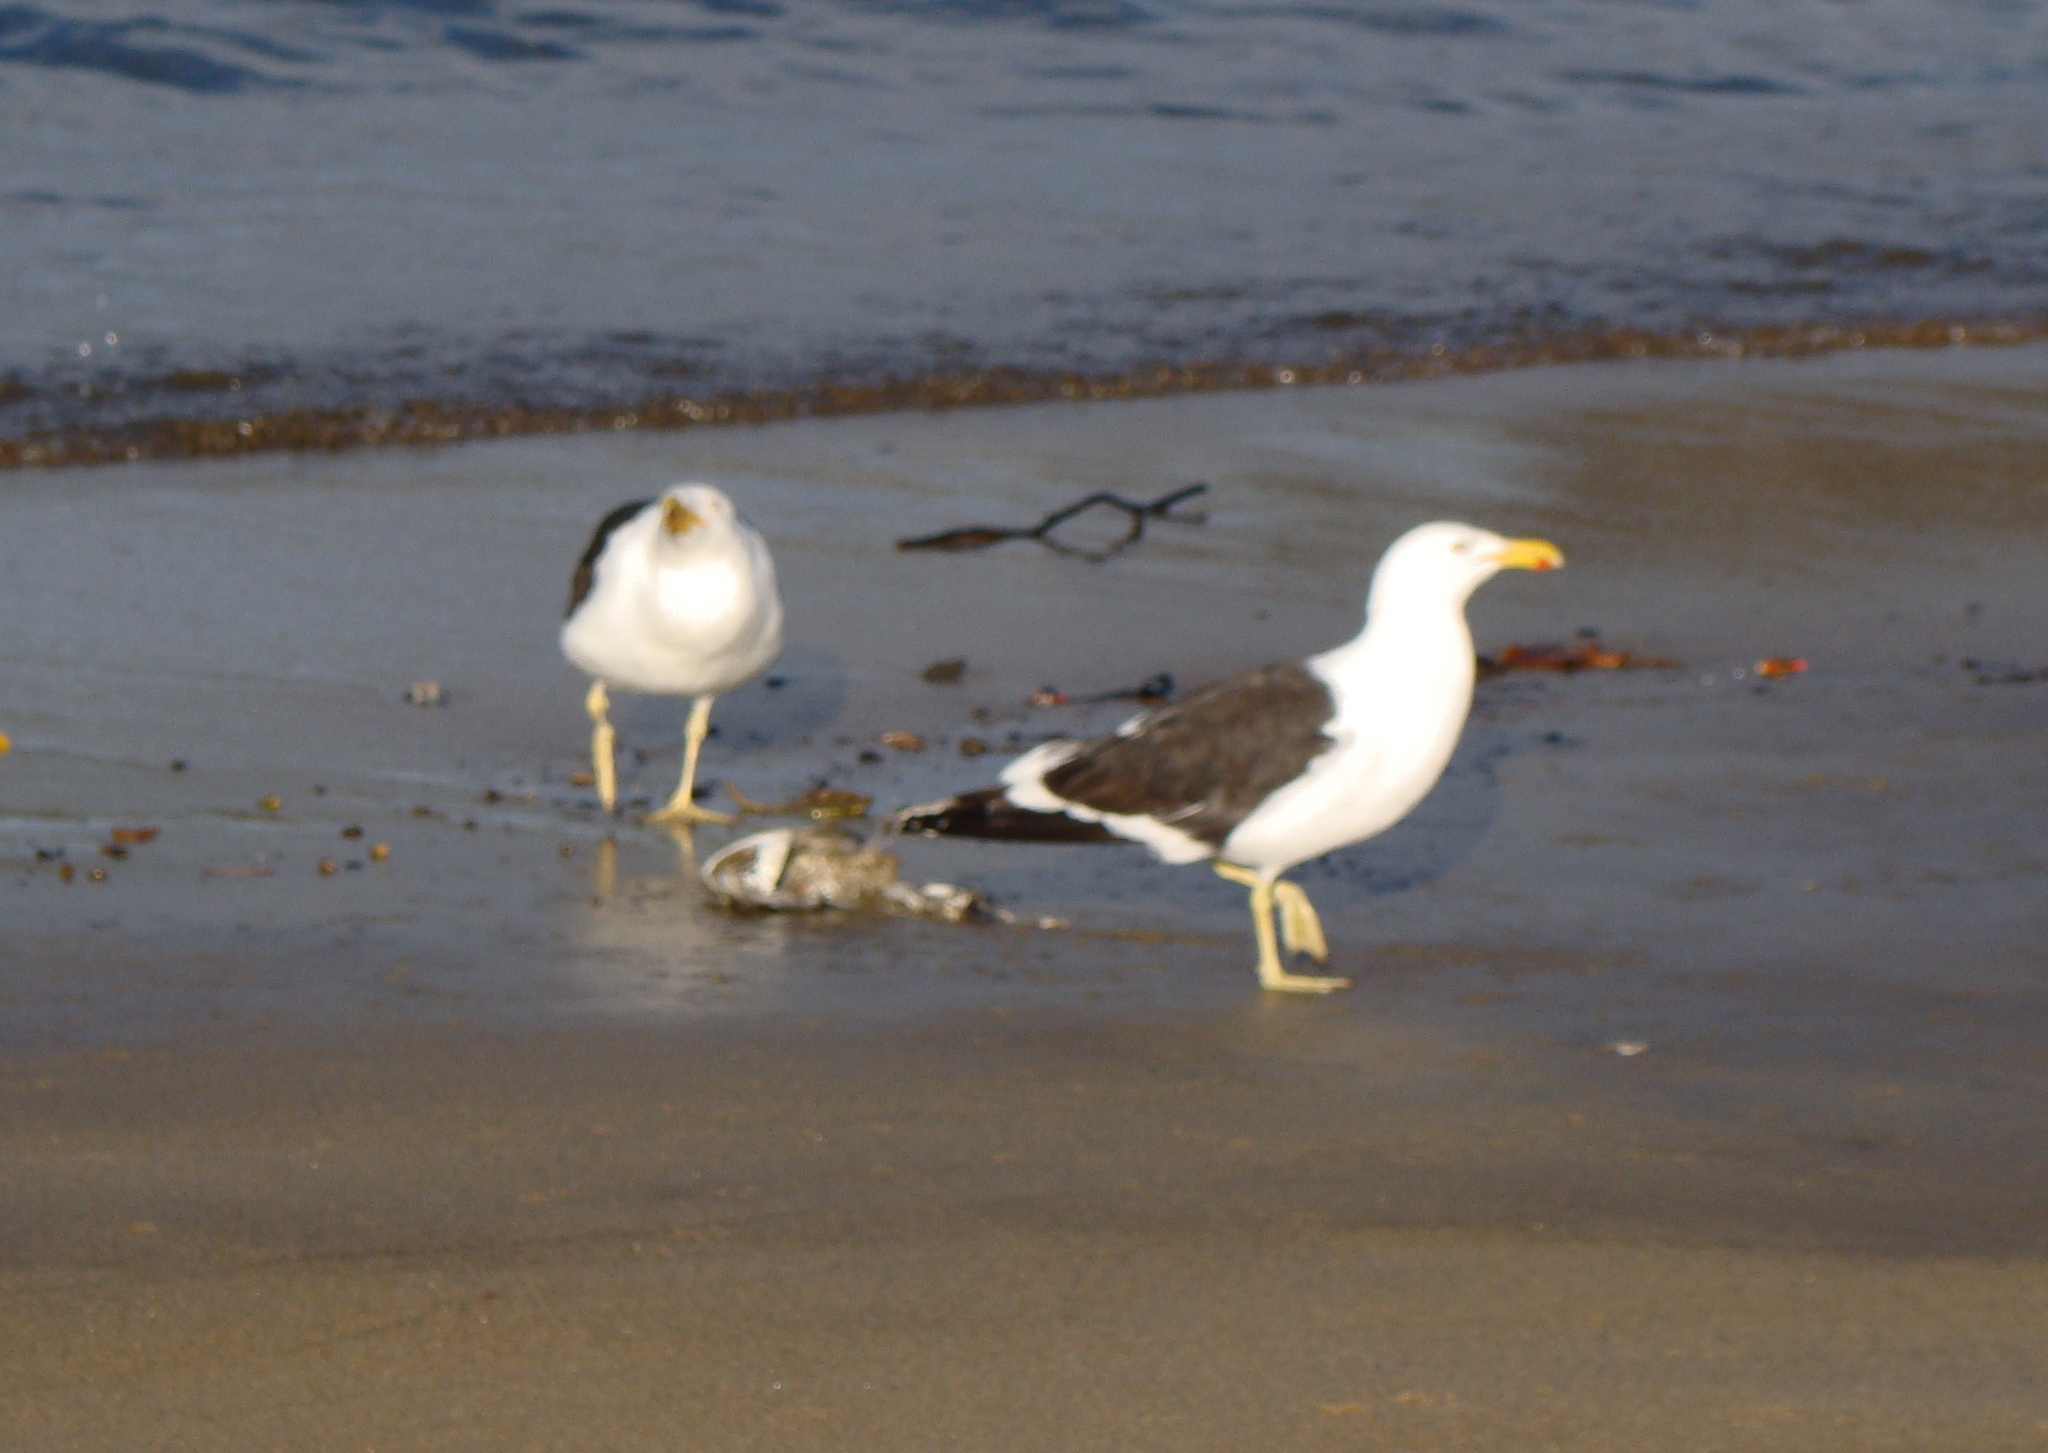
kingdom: Animalia
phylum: Chordata
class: Aves
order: Charadriiformes
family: Laridae
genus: Larus
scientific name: Larus dominicanus
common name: Kelp gull
